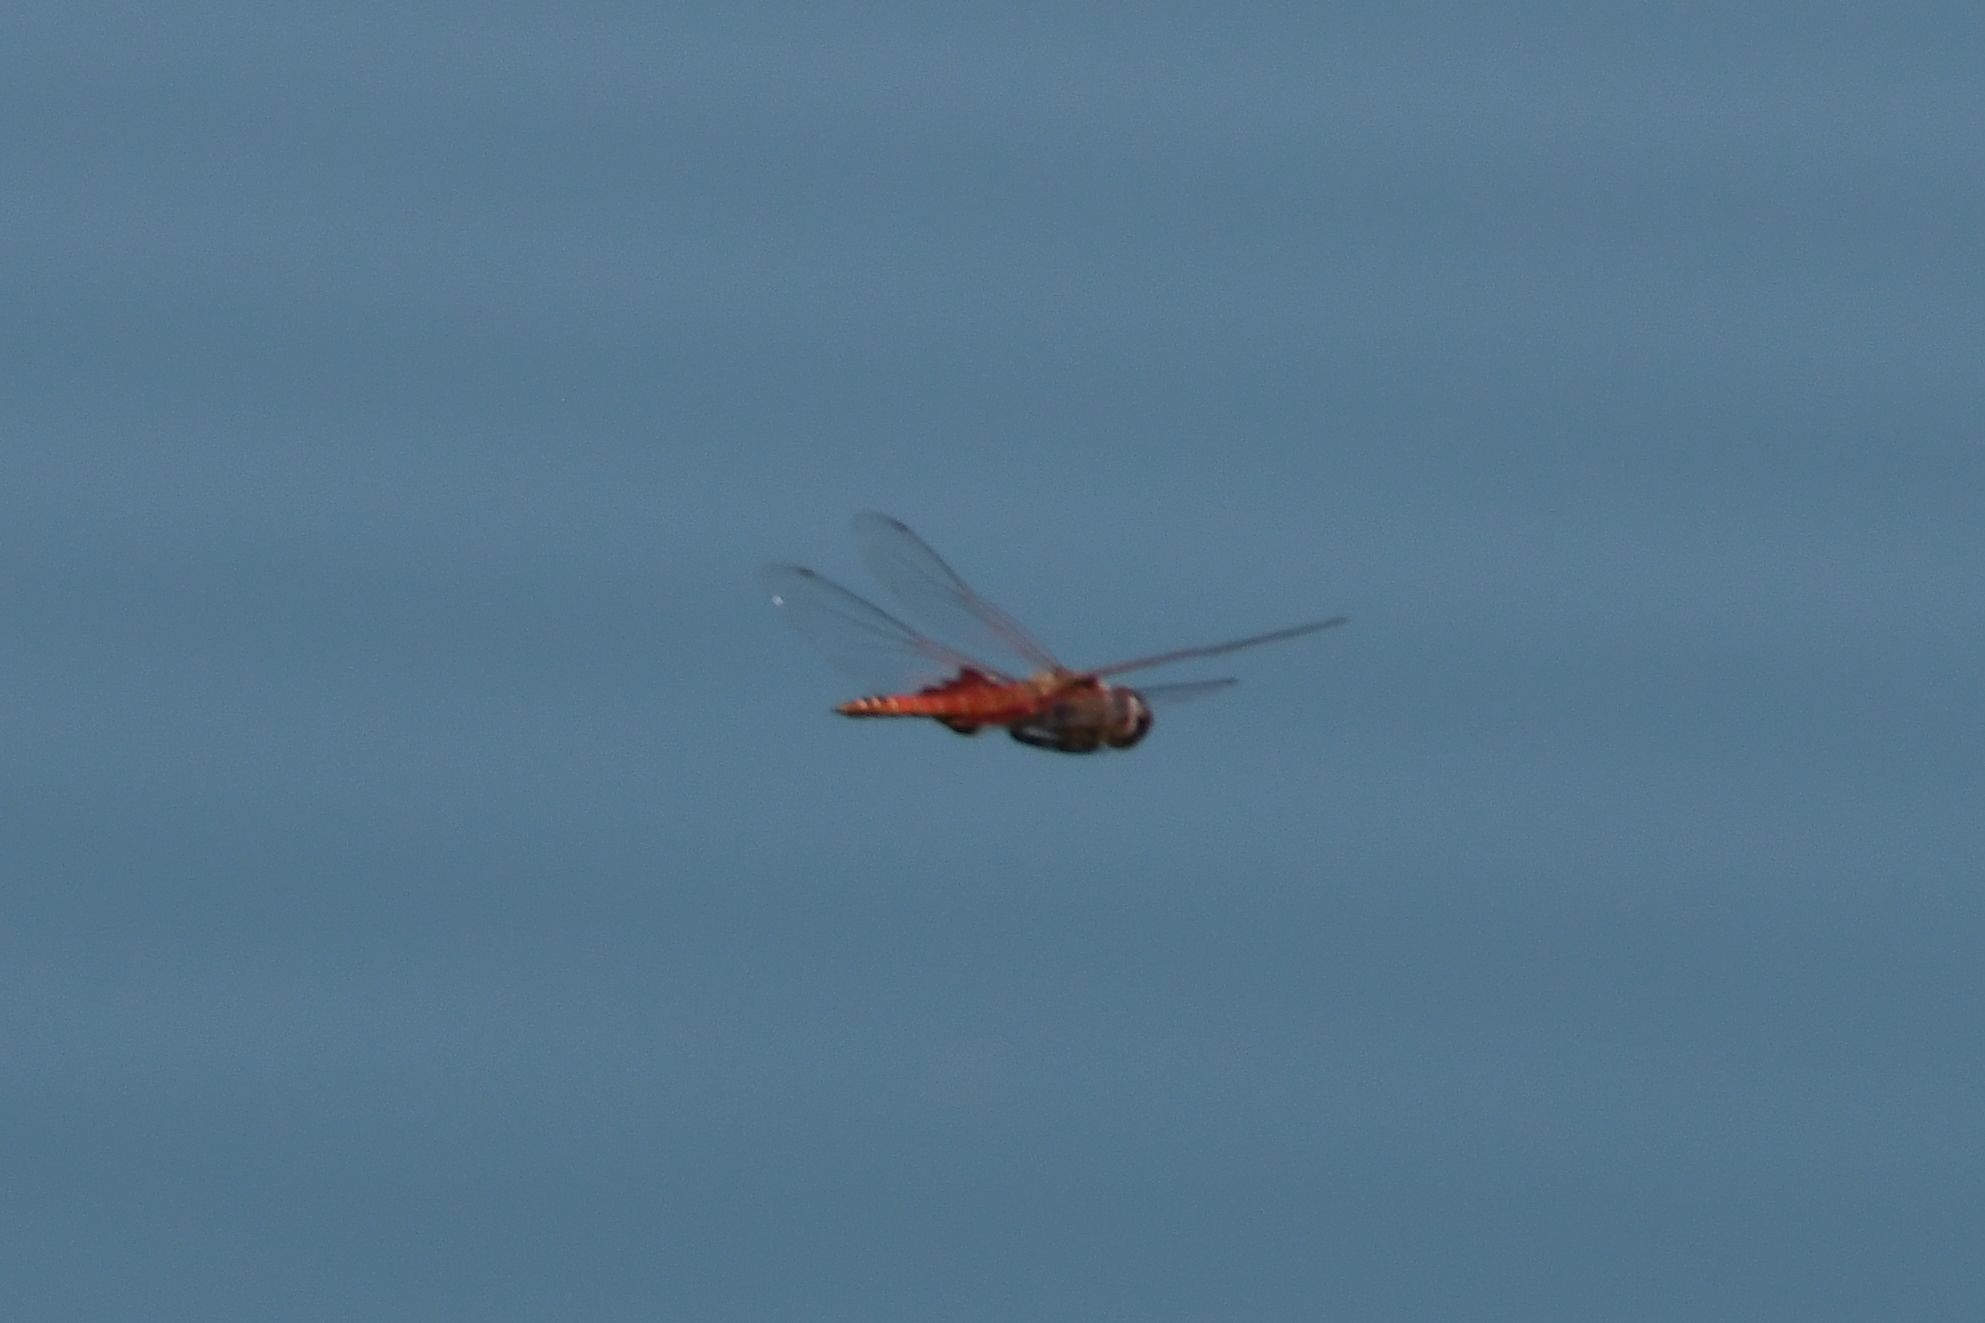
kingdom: Animalia
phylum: Arthropoda
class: Insecta
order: Odonata
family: Libellulidae
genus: Tramea
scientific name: Tramea onusta
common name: Red saddlebags
